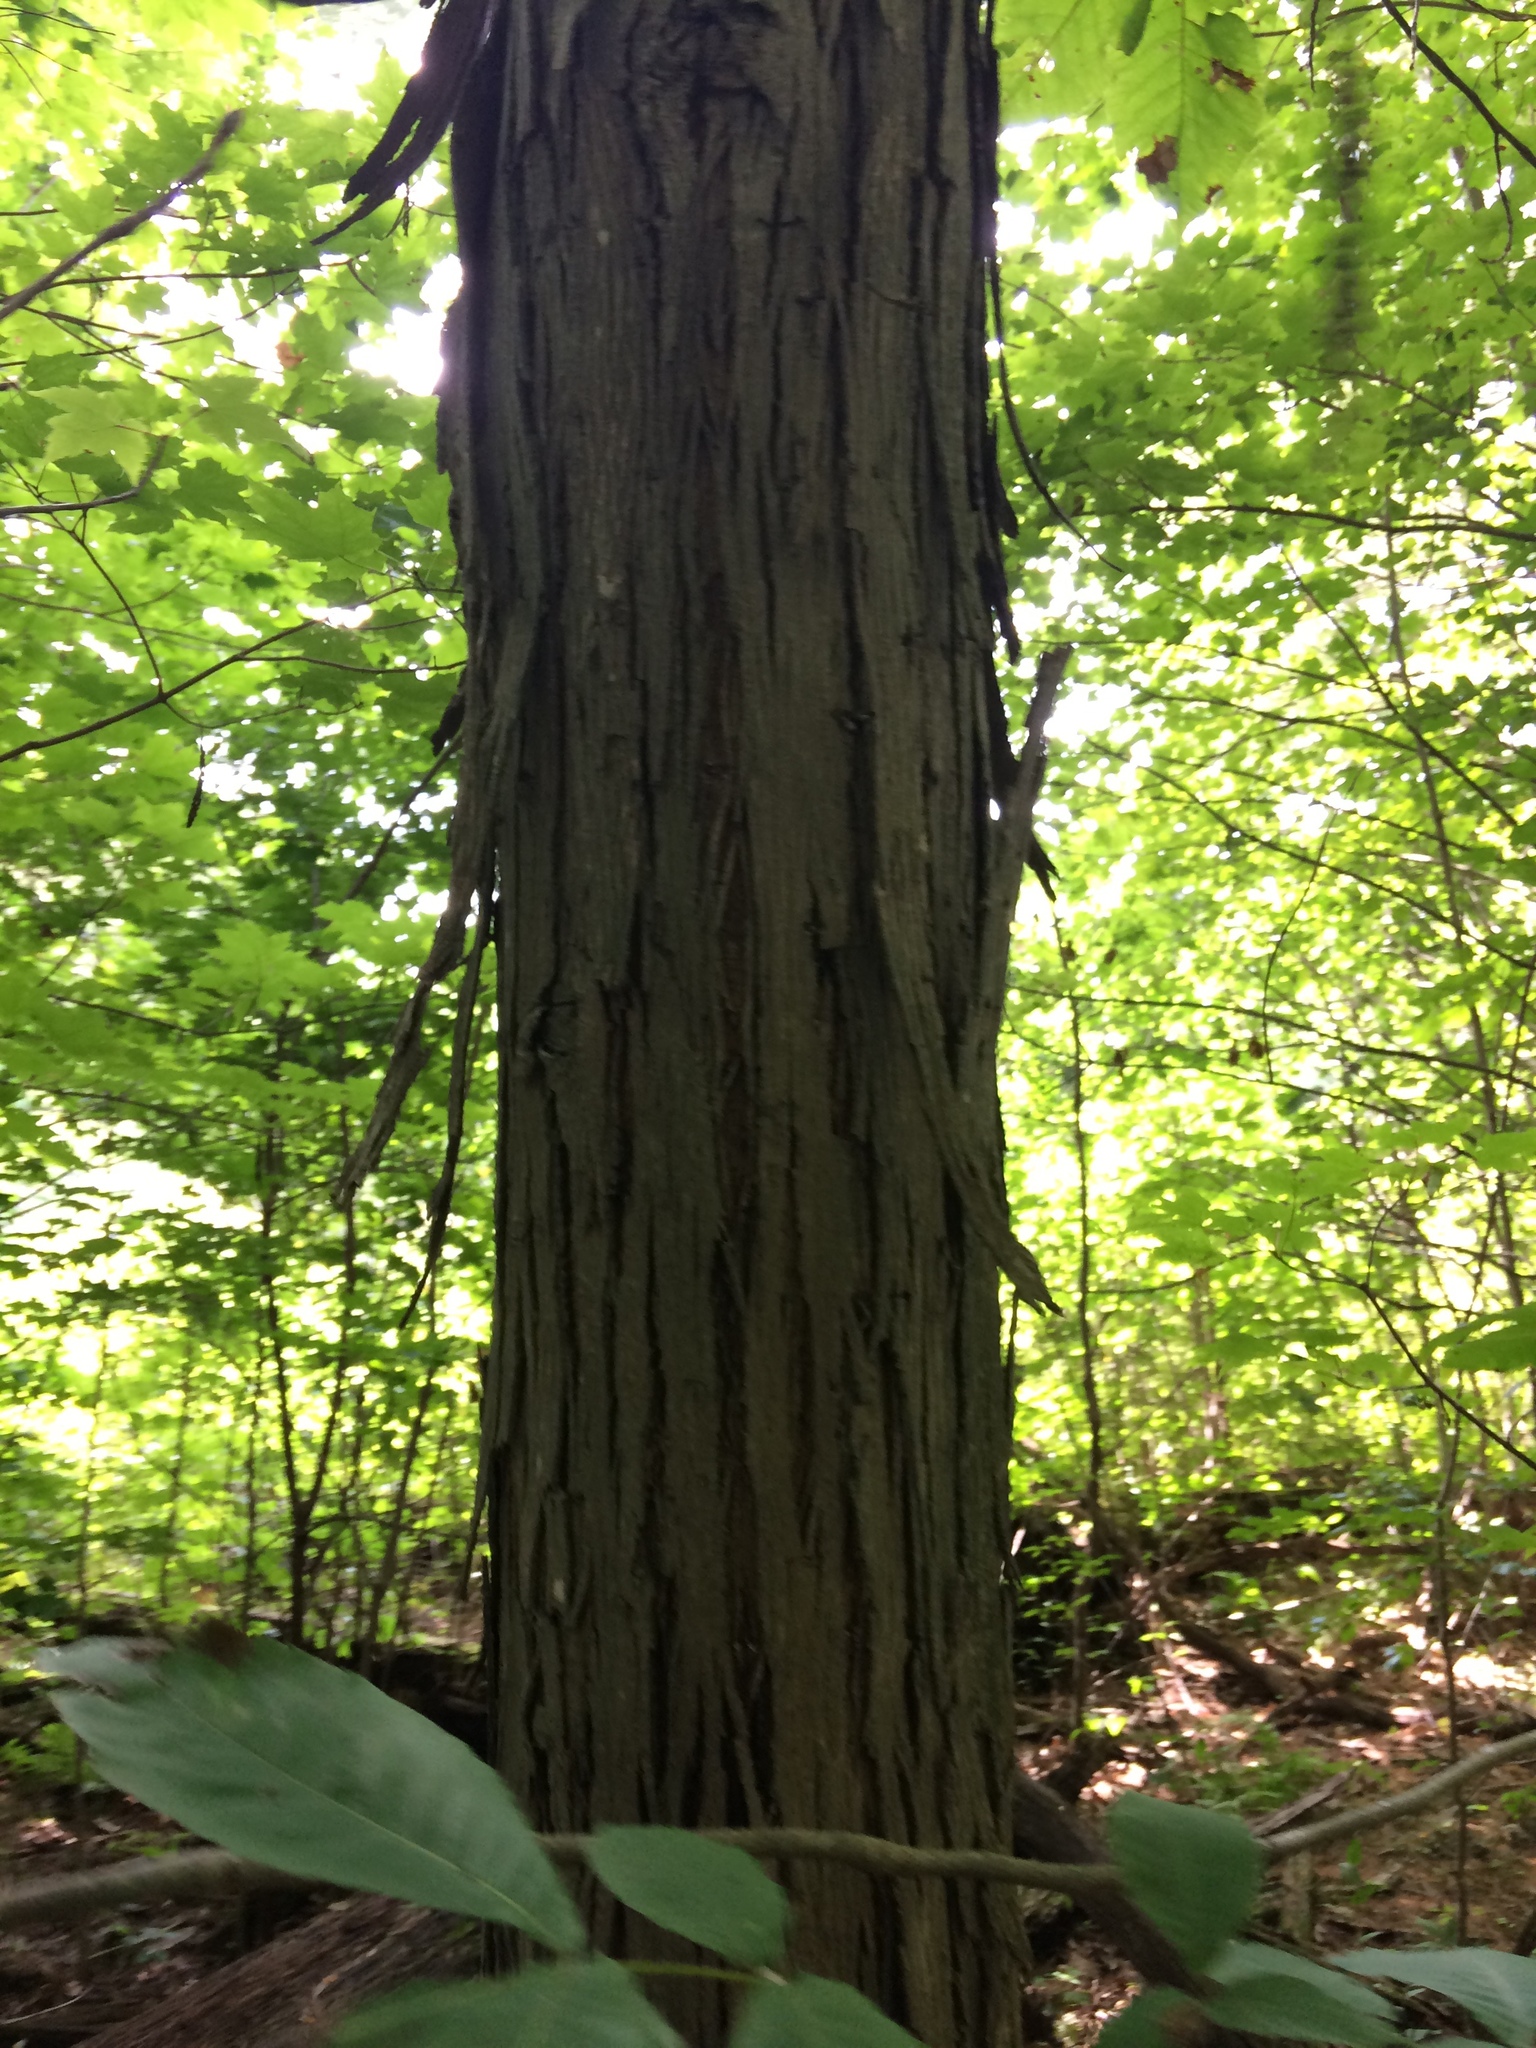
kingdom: Plantae
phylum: Tracheophyta
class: Magnoliopsida
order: Fagales
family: Juglandaceae
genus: Carya
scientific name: Carya ovata
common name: Shagbark hickory
